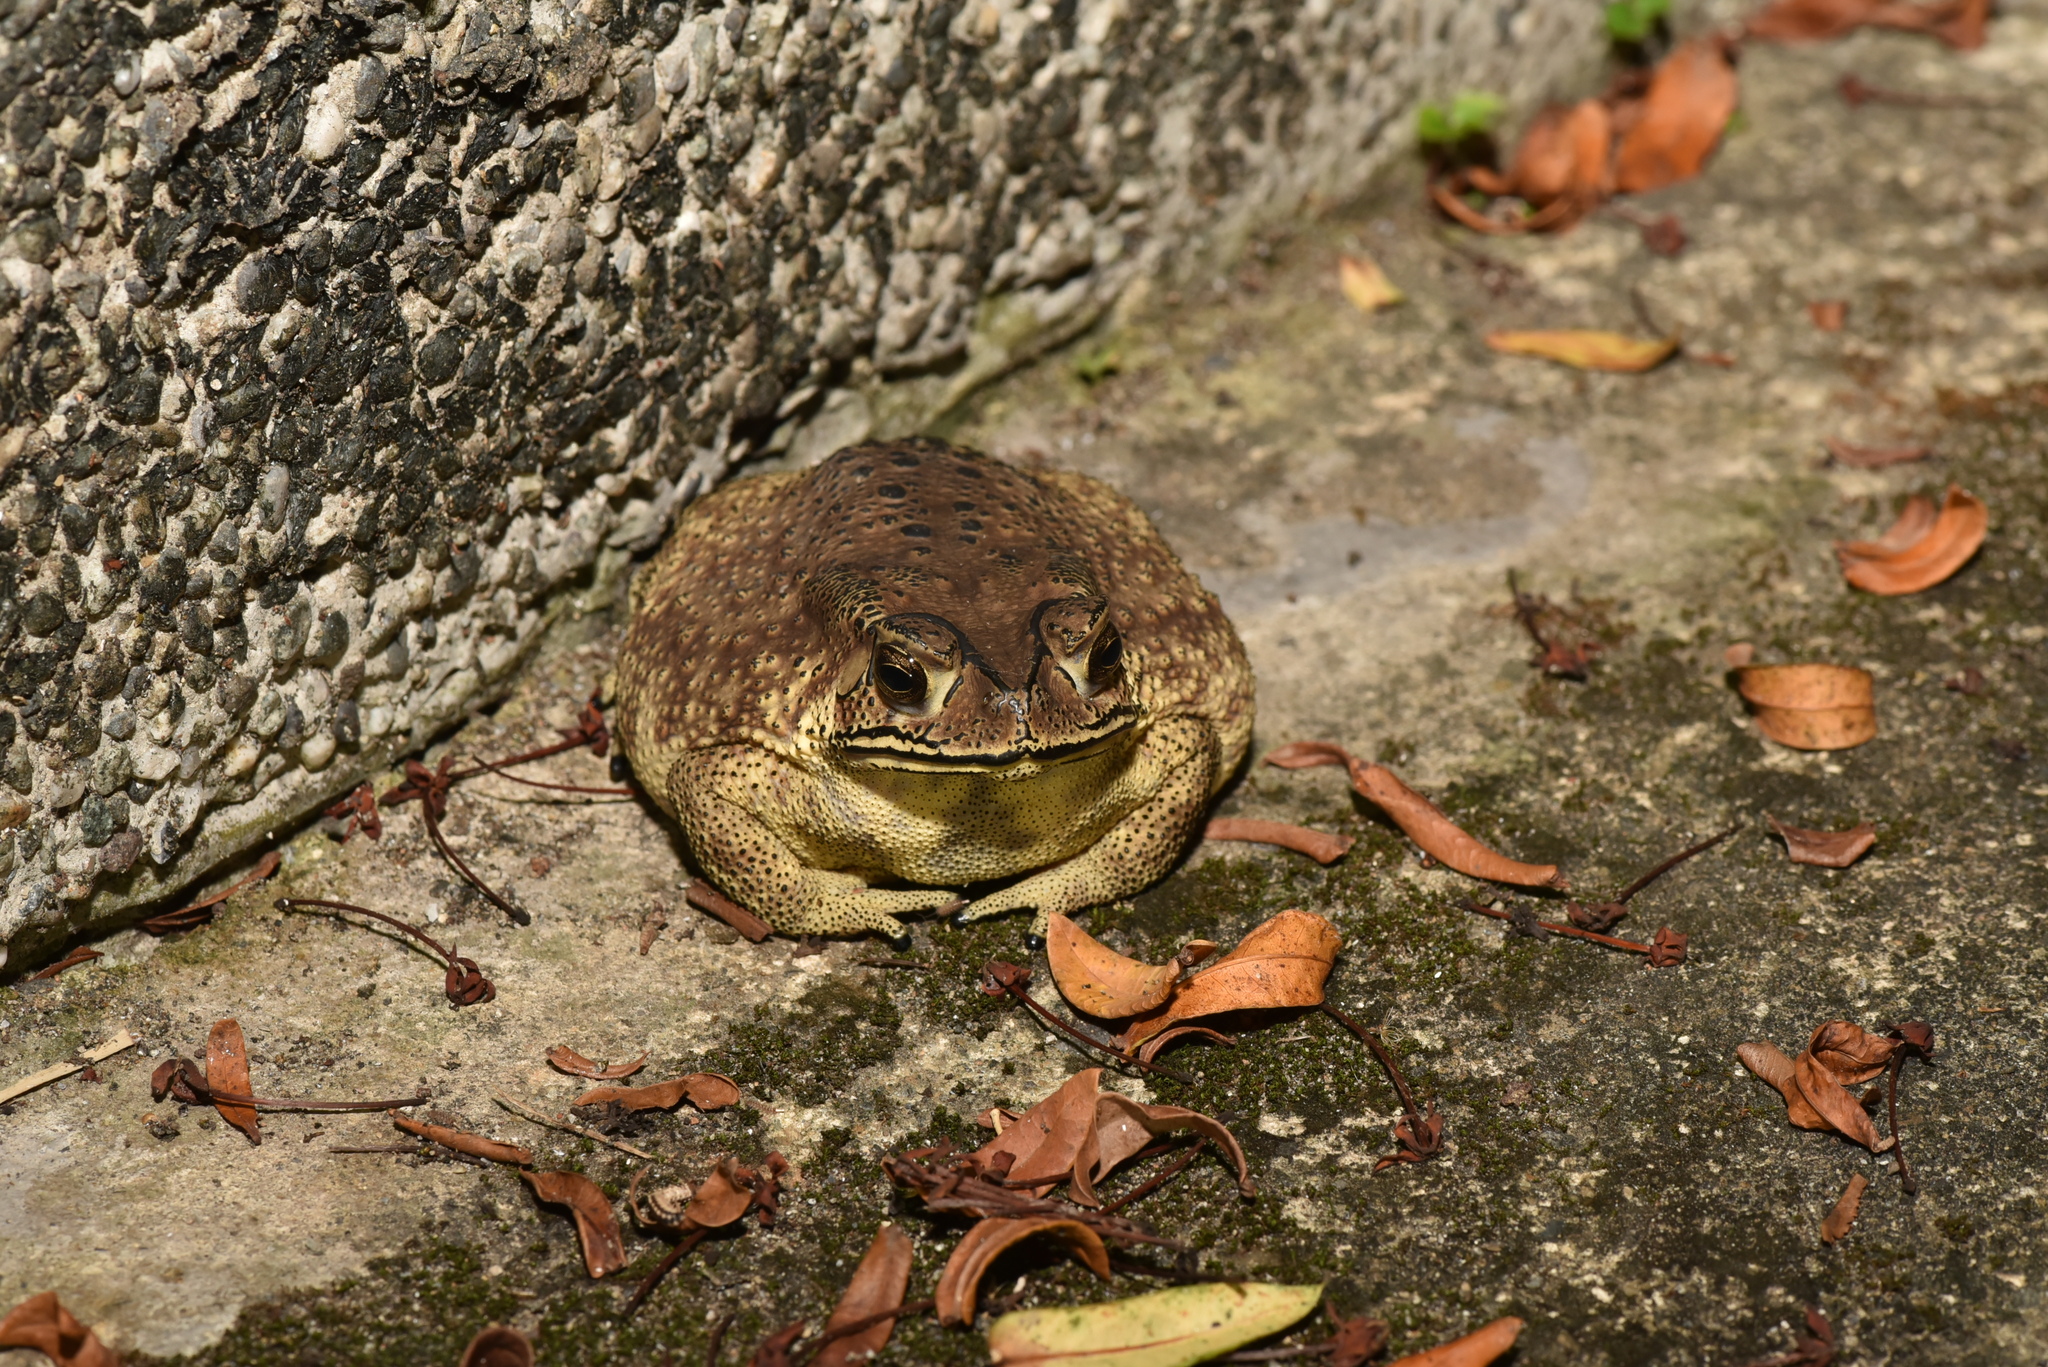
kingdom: Animalia
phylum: Chordata
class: Amphibia
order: Anura
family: Bufonidae
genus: Duttaphrynus
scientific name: Duttaphrynus melanostictus
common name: Common sunda toad
